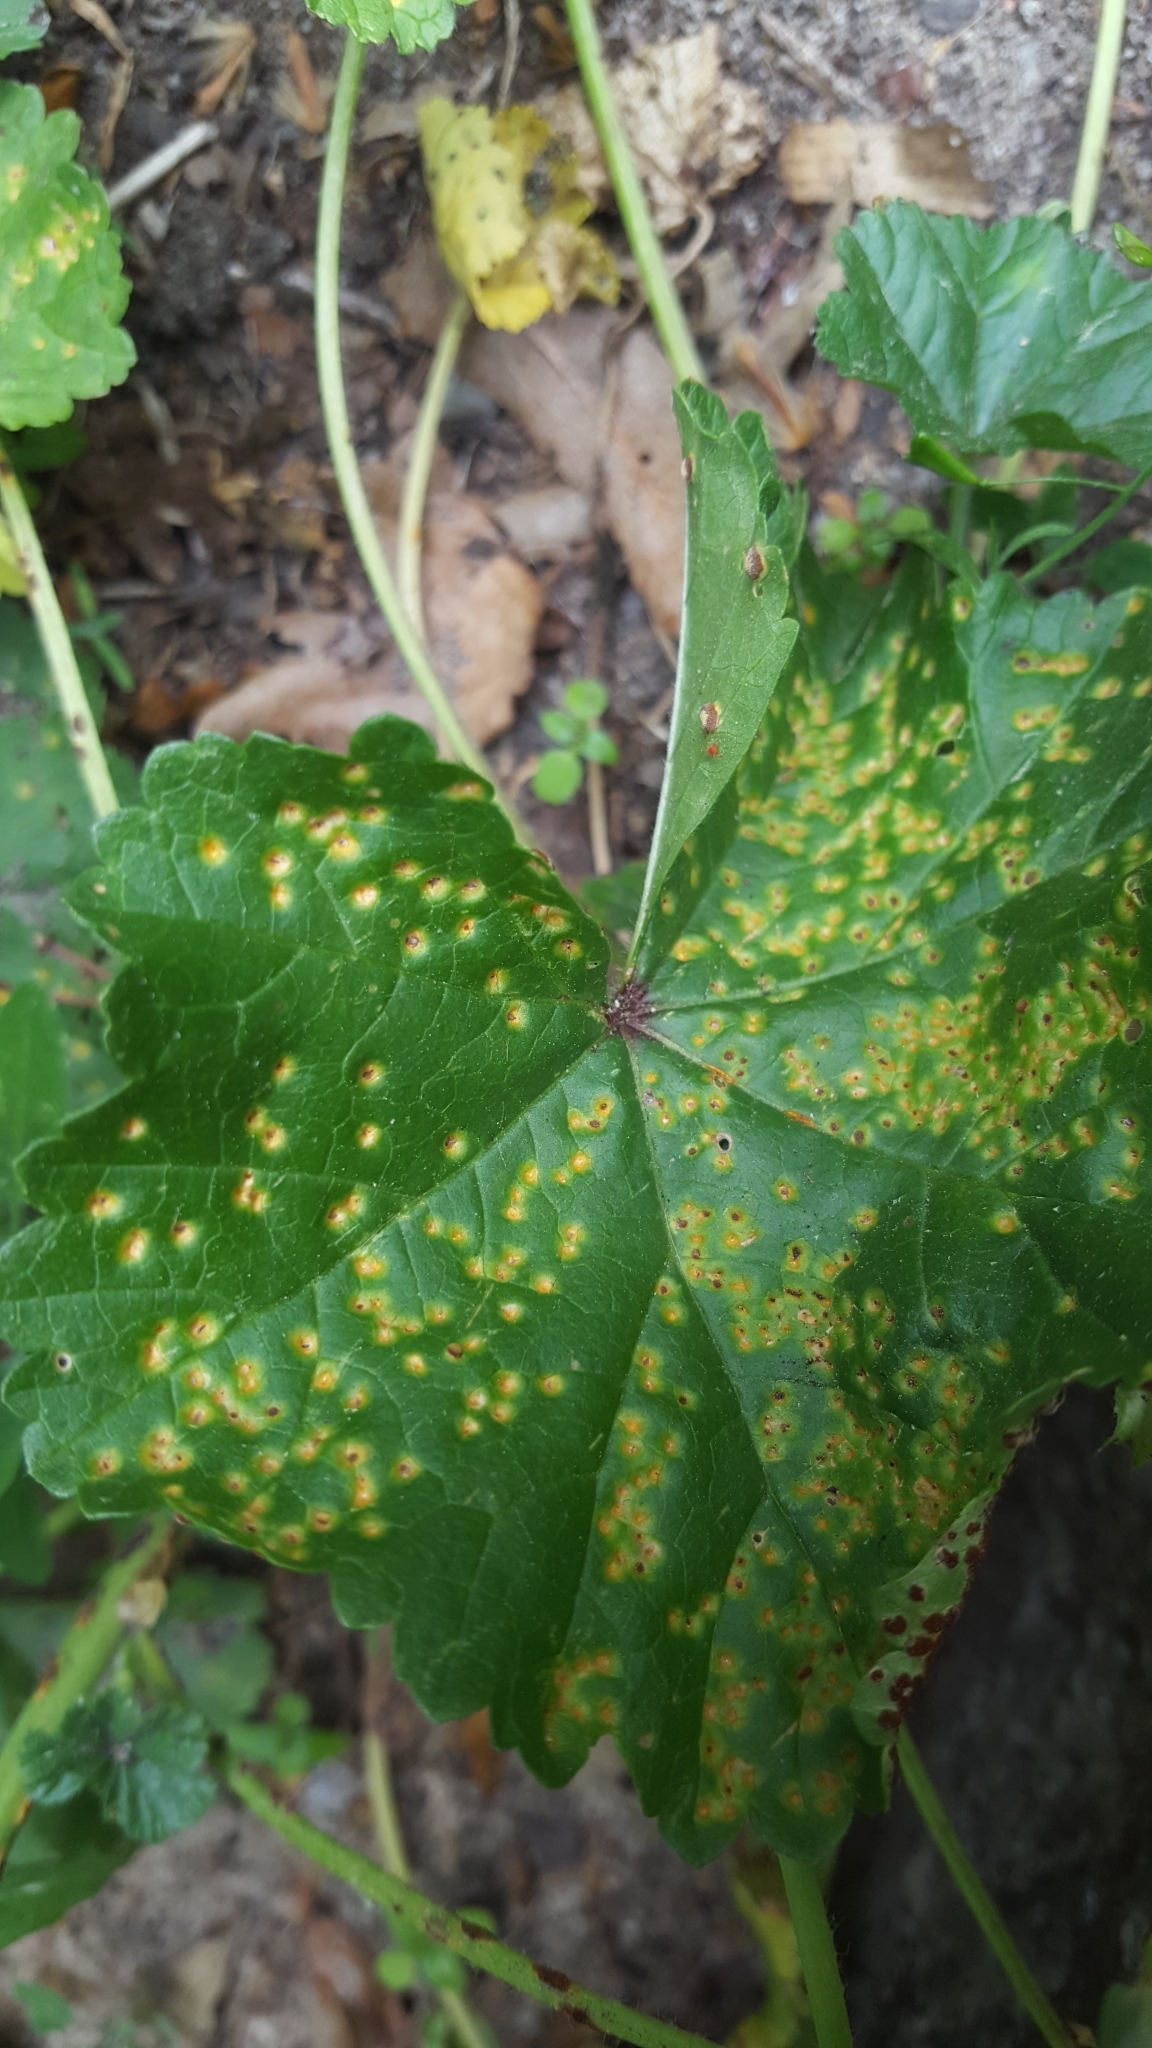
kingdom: Fungi
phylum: Basidiomycota
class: Pucciniomycetes
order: Pucciniales
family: Pucciniaceae
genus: Puccinia
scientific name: Puccinia malvacearum
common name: Hollyhock rust
